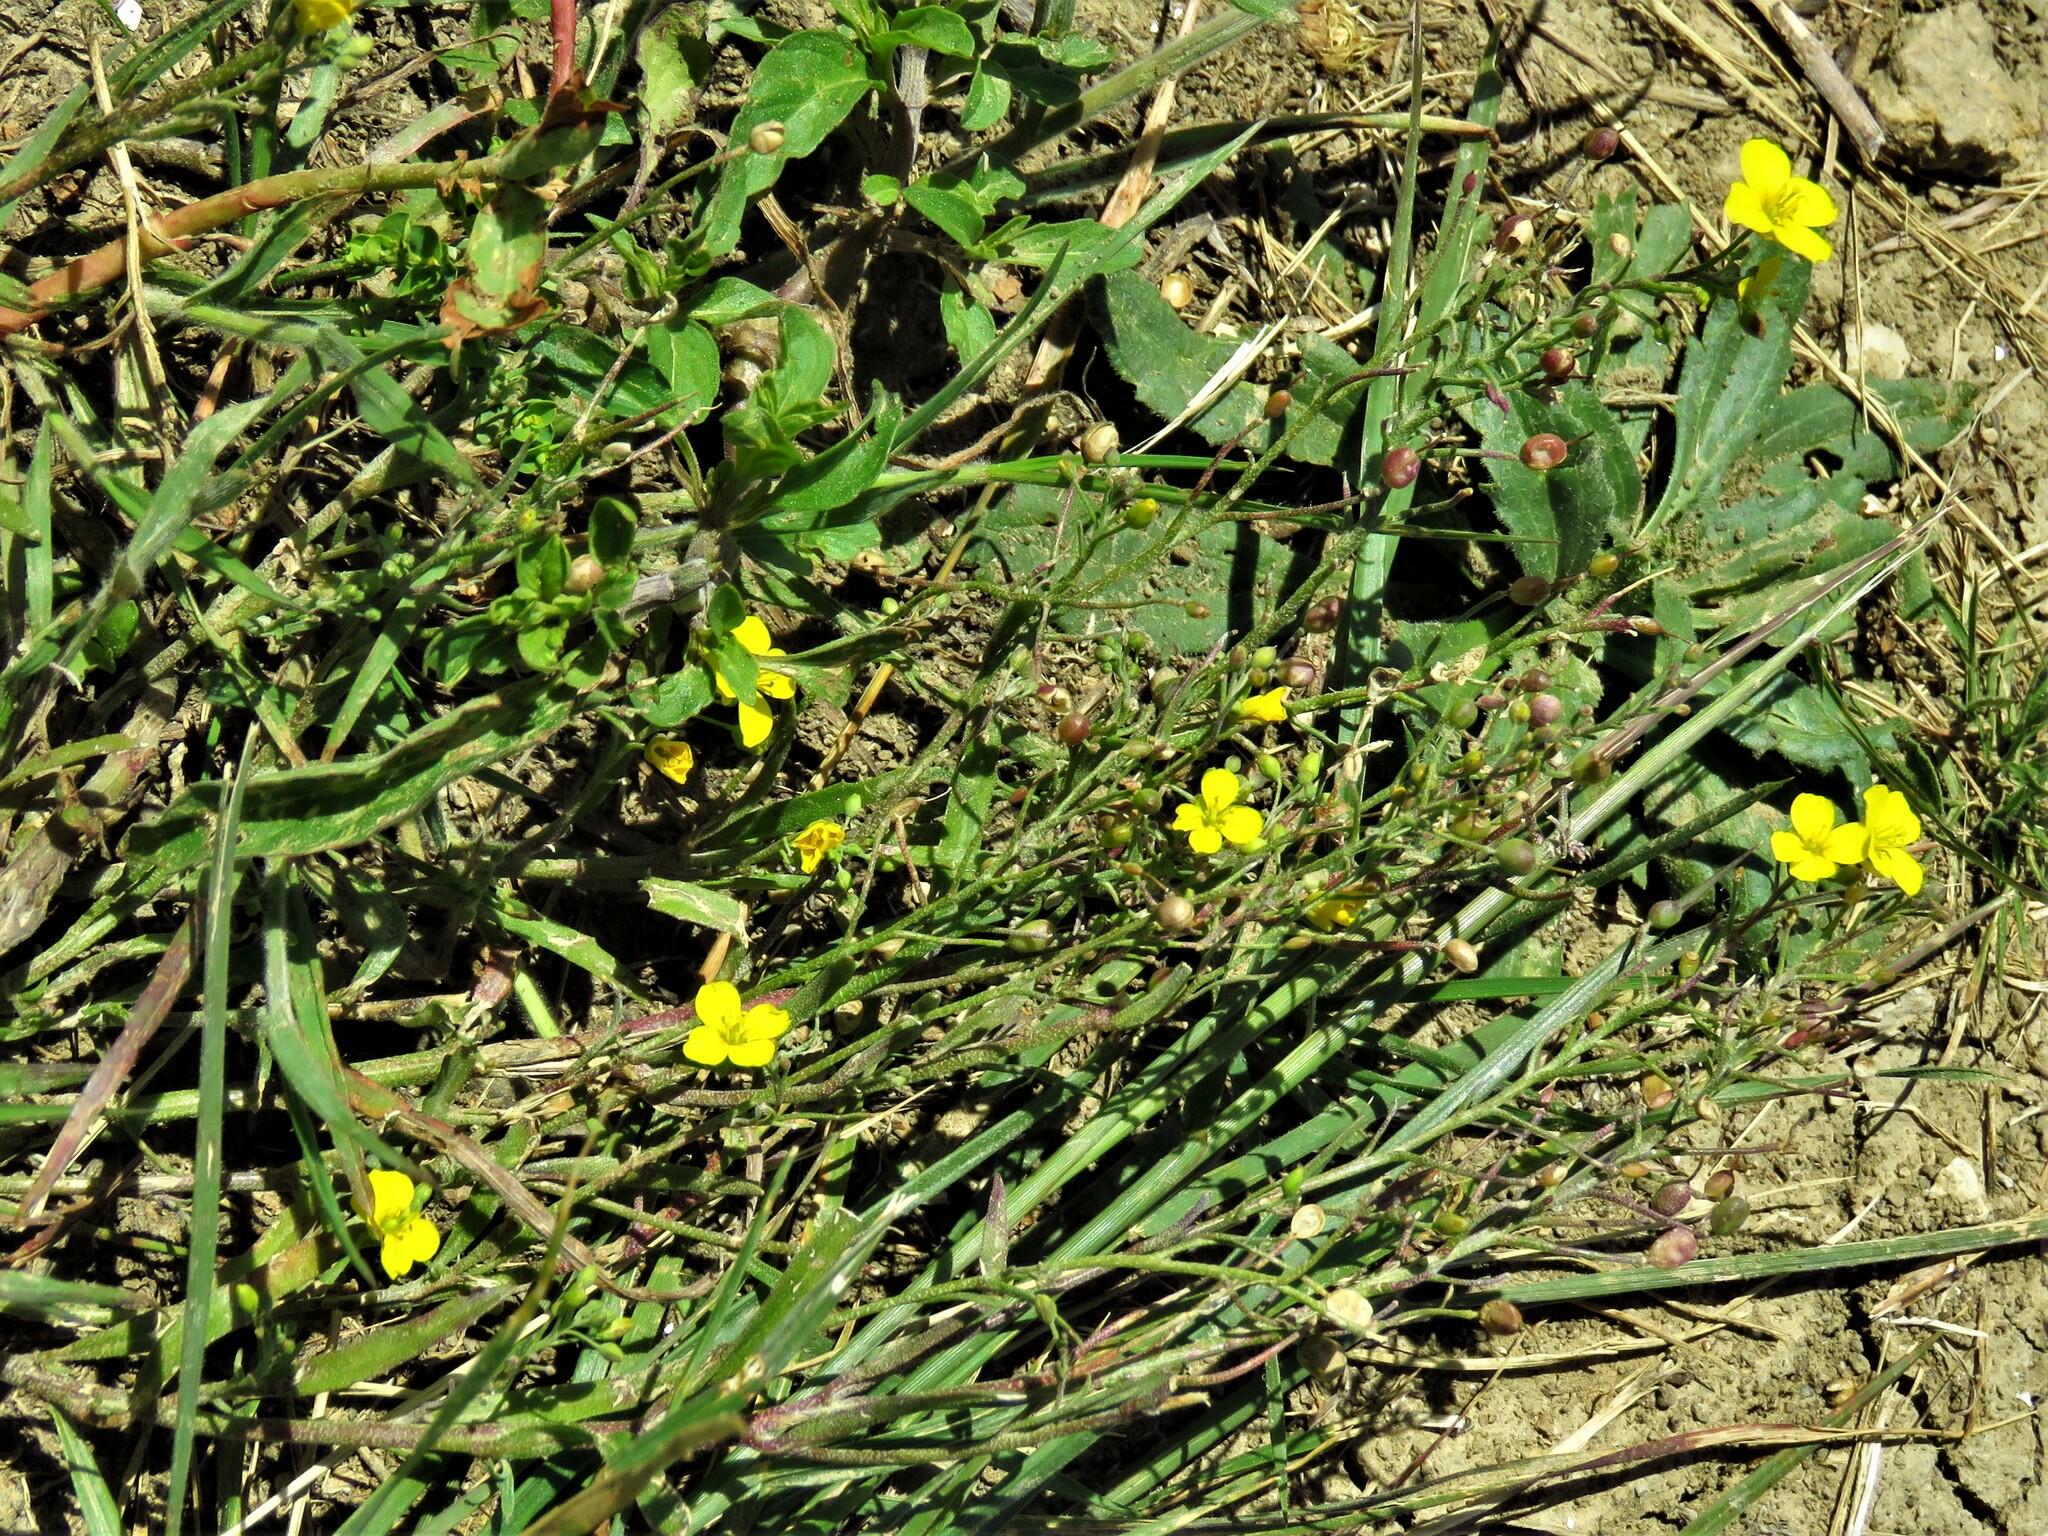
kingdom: Plantae
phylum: Tracheophyta
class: Magnoliopsida
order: Brassicales
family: Brassicaceae
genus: Physaria
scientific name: Physaria gracilis
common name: Spreading bladderpod
